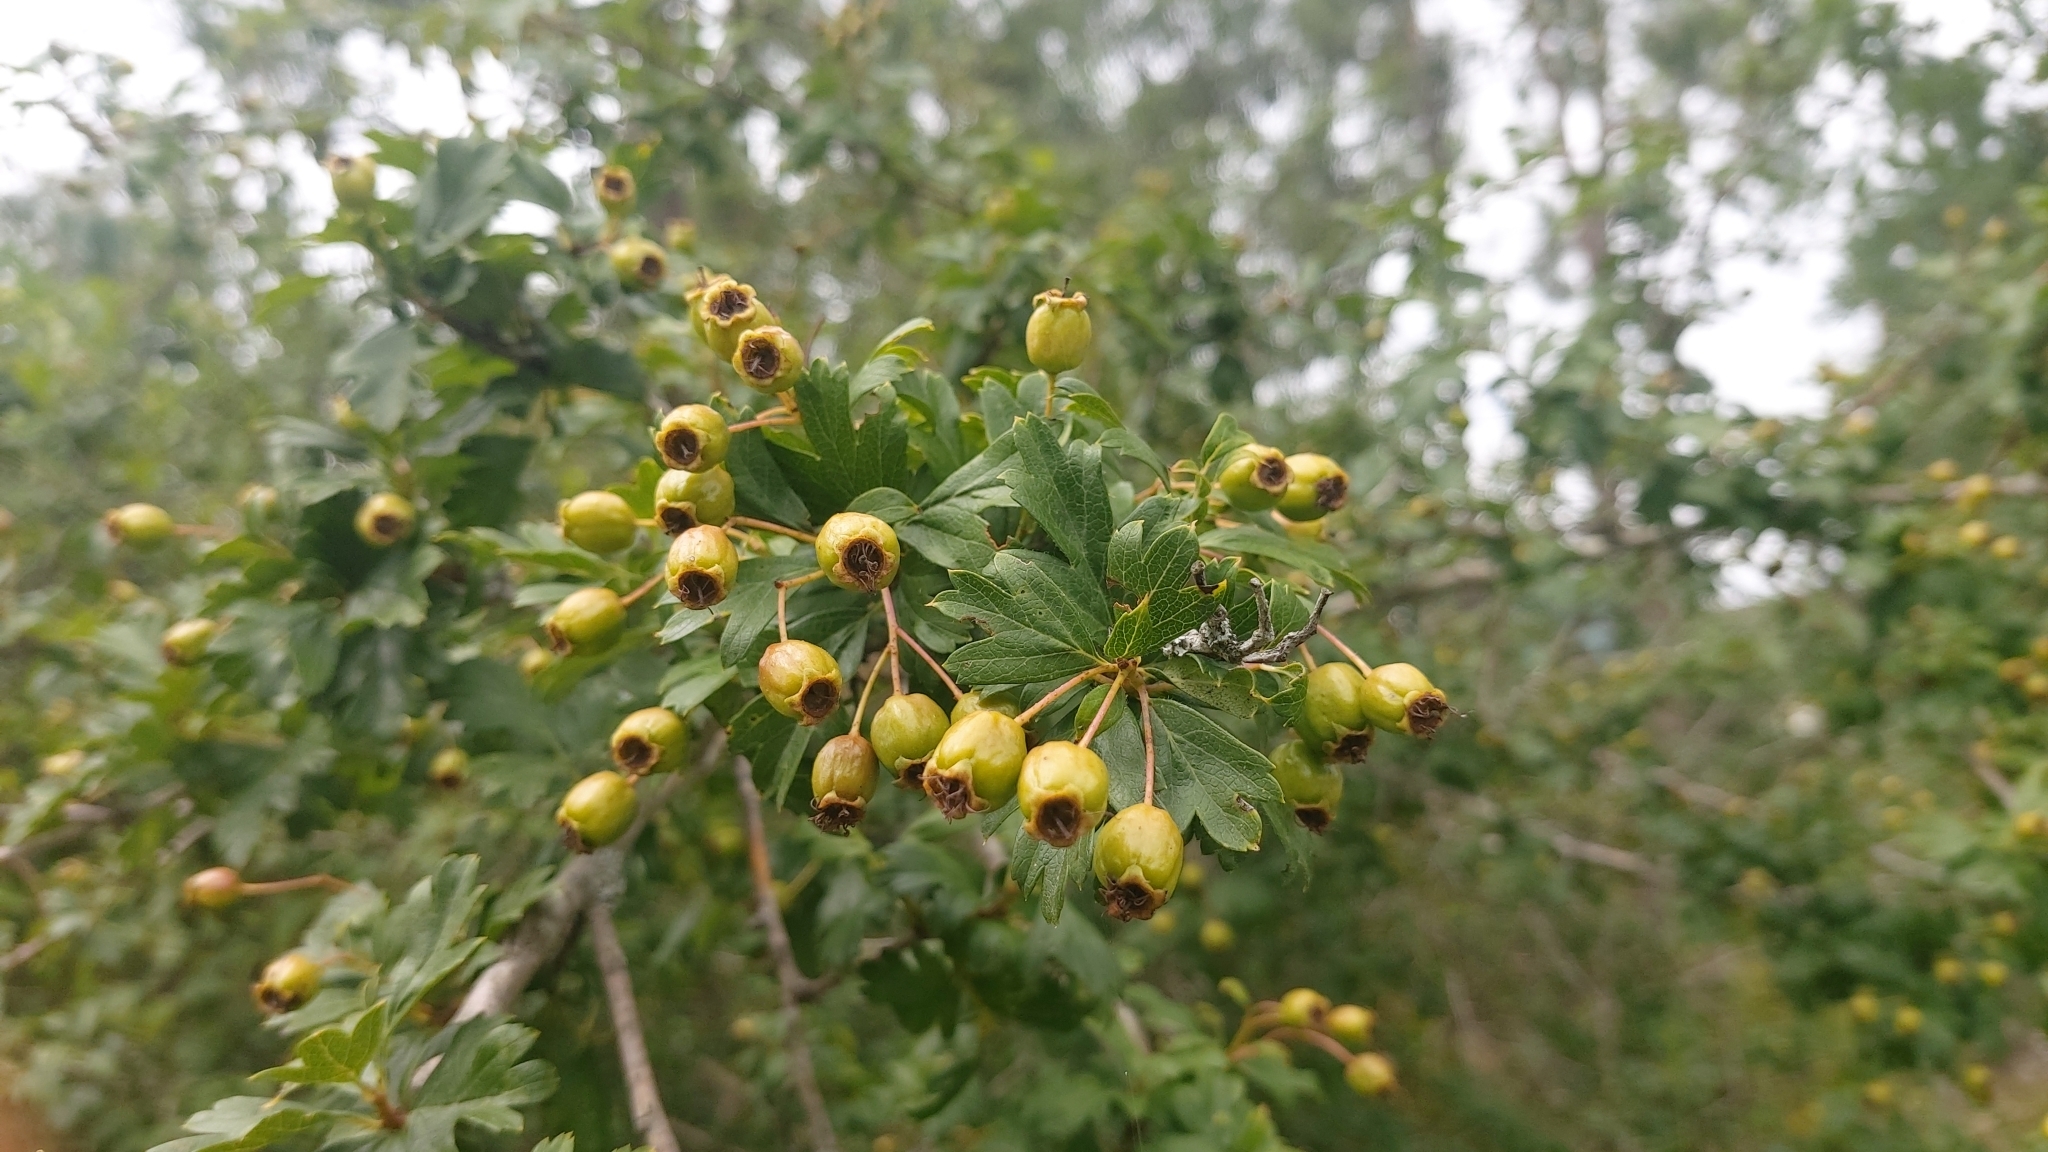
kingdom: Plantae
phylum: Tracheophyta
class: Magnoliopsida
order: Rosales
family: Rosaceae
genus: Crataegus
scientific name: Crataegus monogyna
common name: Hawthorn
